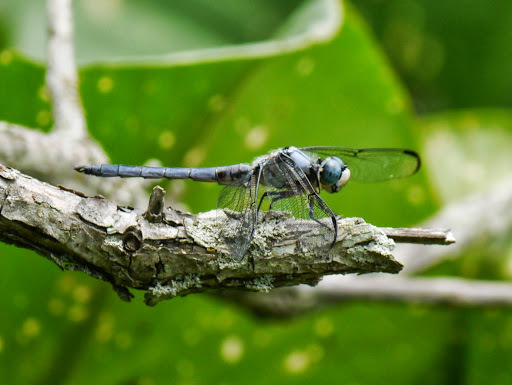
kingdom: Animalia
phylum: Arthropoda
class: Insecta
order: Odonata
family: Libellulidae
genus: Libellula
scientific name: Libellula vibrans
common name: Great blue skimmer
